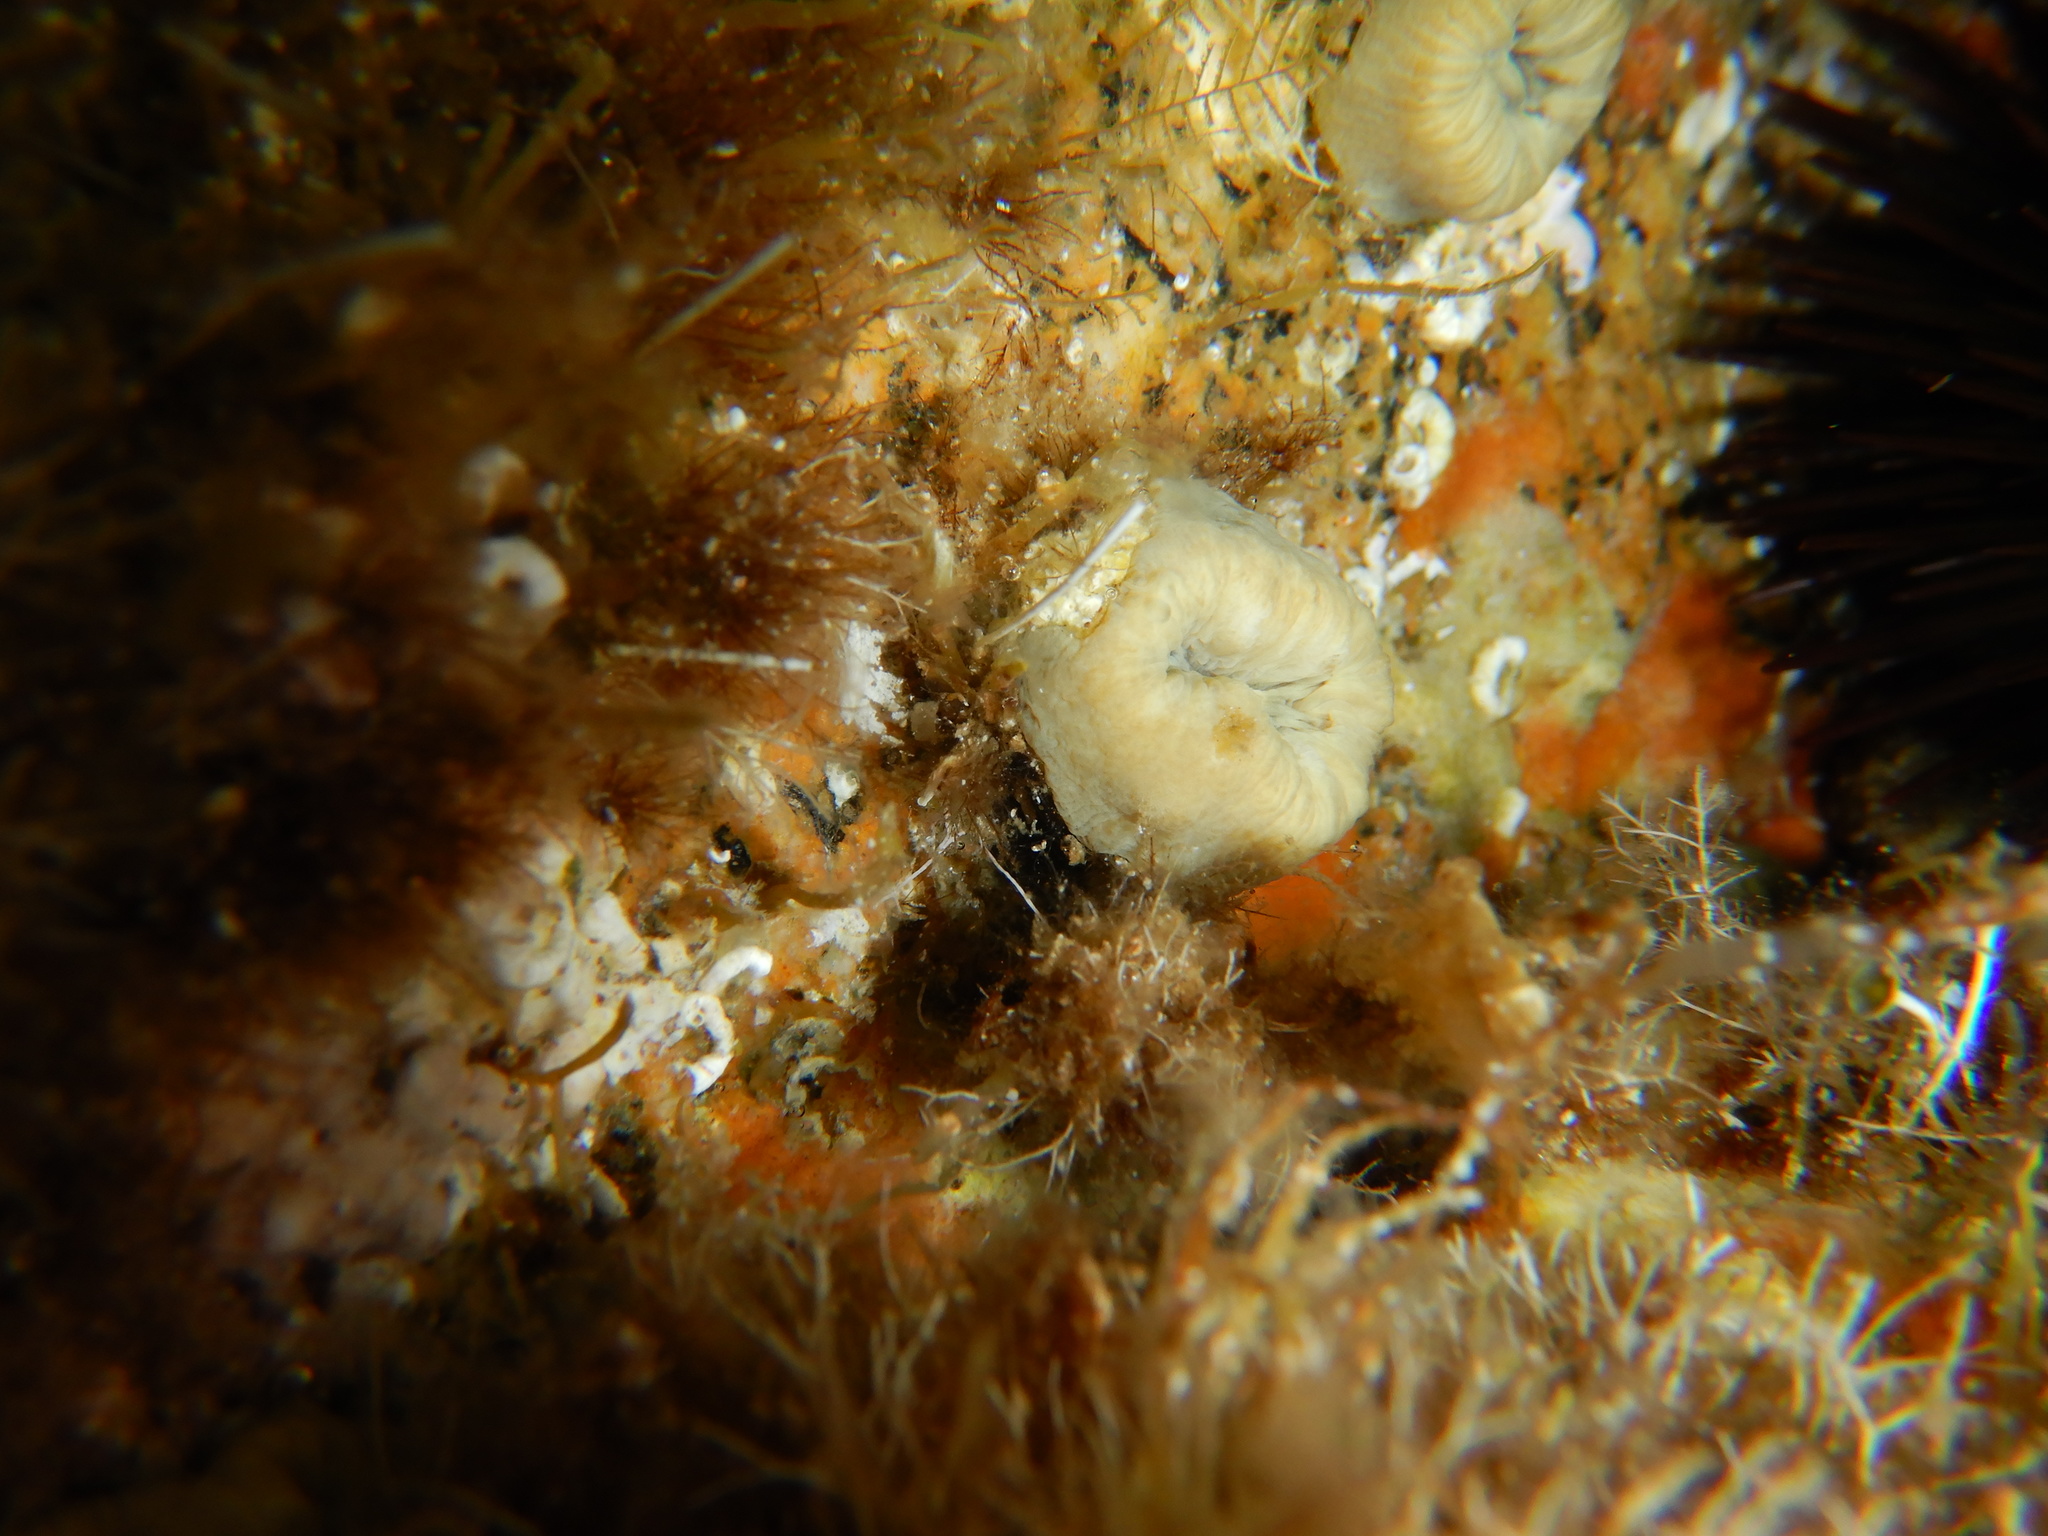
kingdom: Animalia
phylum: Cnidaria
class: Anthozoa
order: Scleractinia
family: Dendrophylliidae
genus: Balanophyllia
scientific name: Balanophyllia europaea
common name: Scarlet coral
